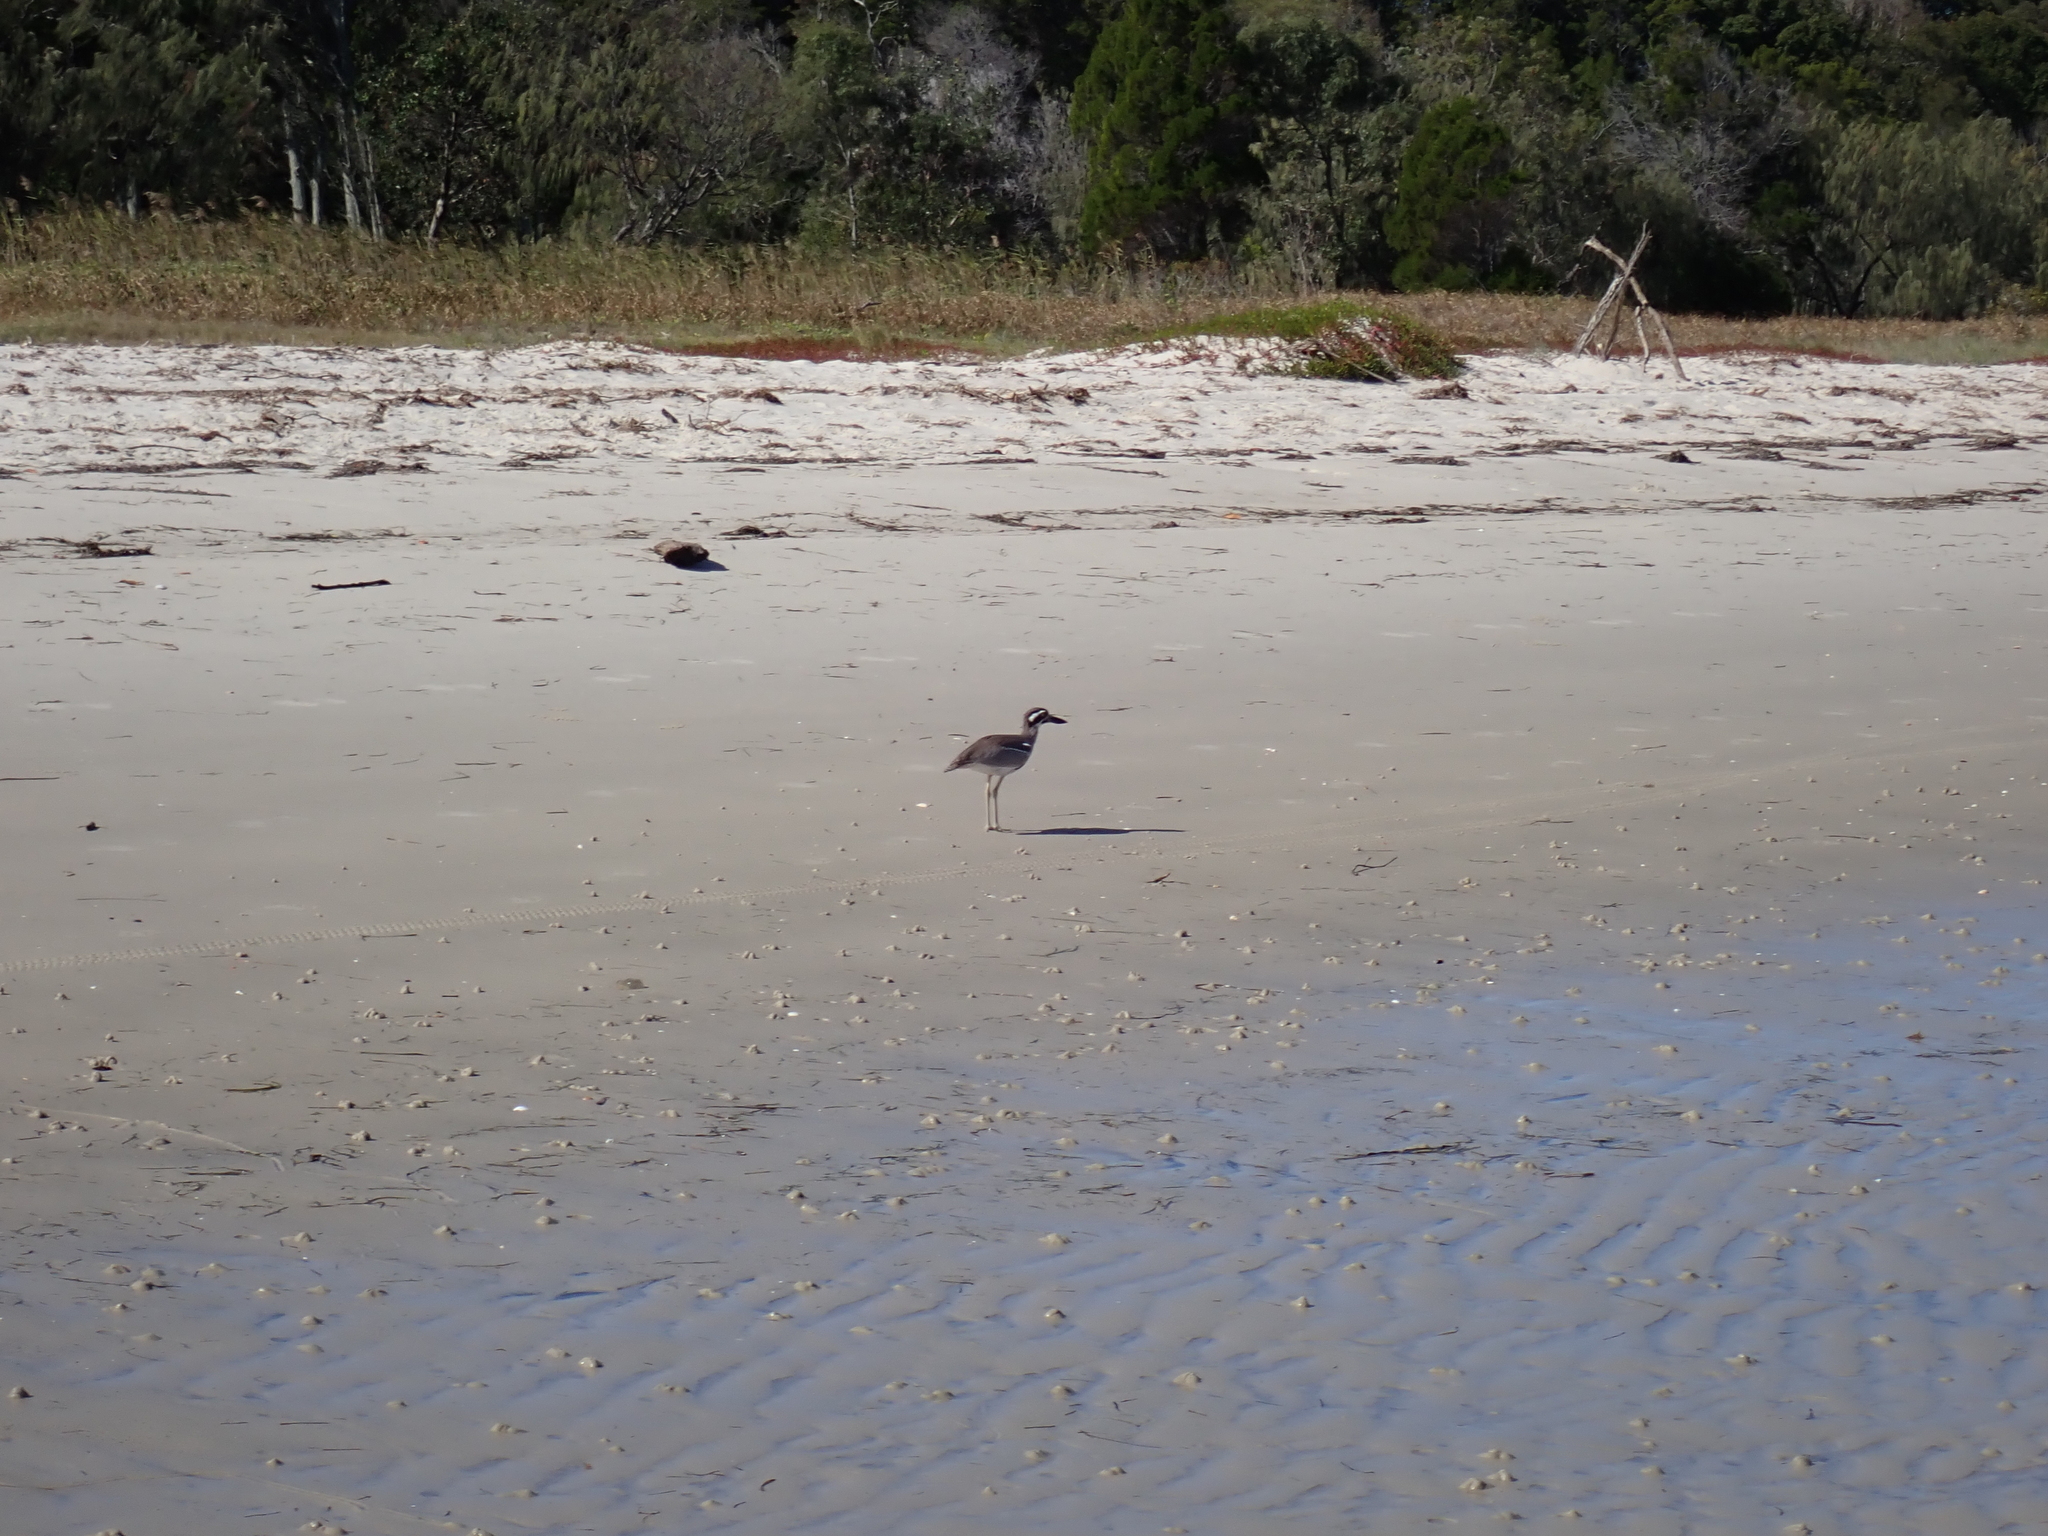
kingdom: Animalia
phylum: Chordata
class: Aves
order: Charadriiformes
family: Burhinidae
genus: Esacus
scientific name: Esacus magnirostris
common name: Beach stone-curlew
